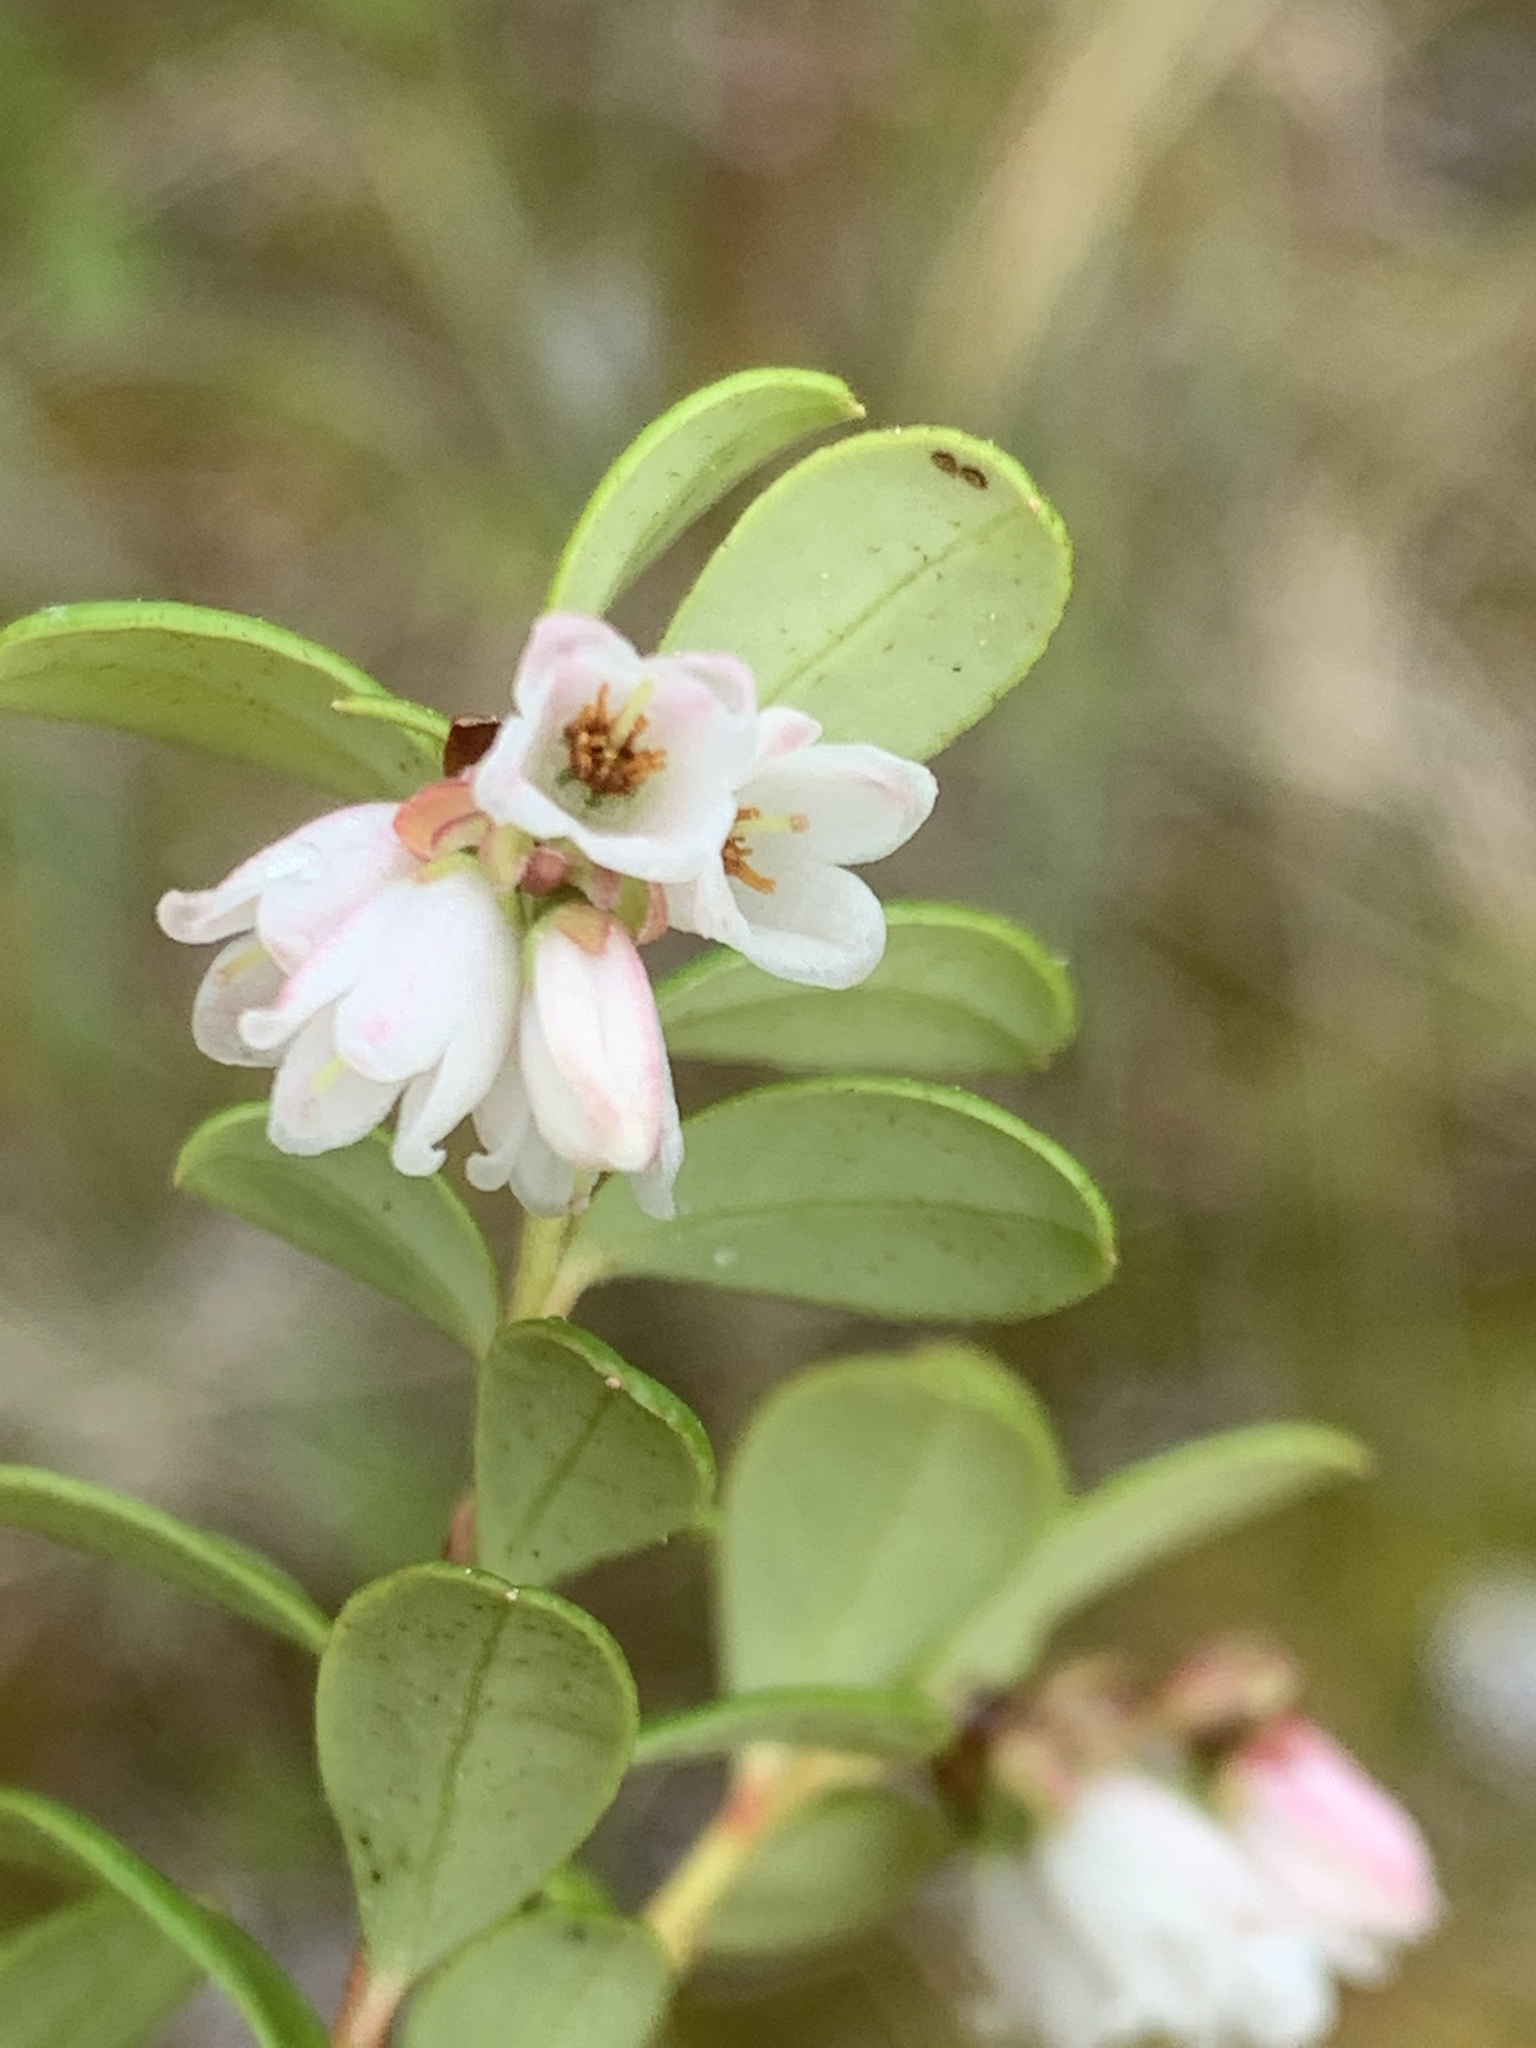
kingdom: Plantae
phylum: Tracheophyta
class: Magnoliopsida
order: Ericales
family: Ericaceae
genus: Vaccinium
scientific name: Vaccinium vitis-idaea
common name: Cowberry
